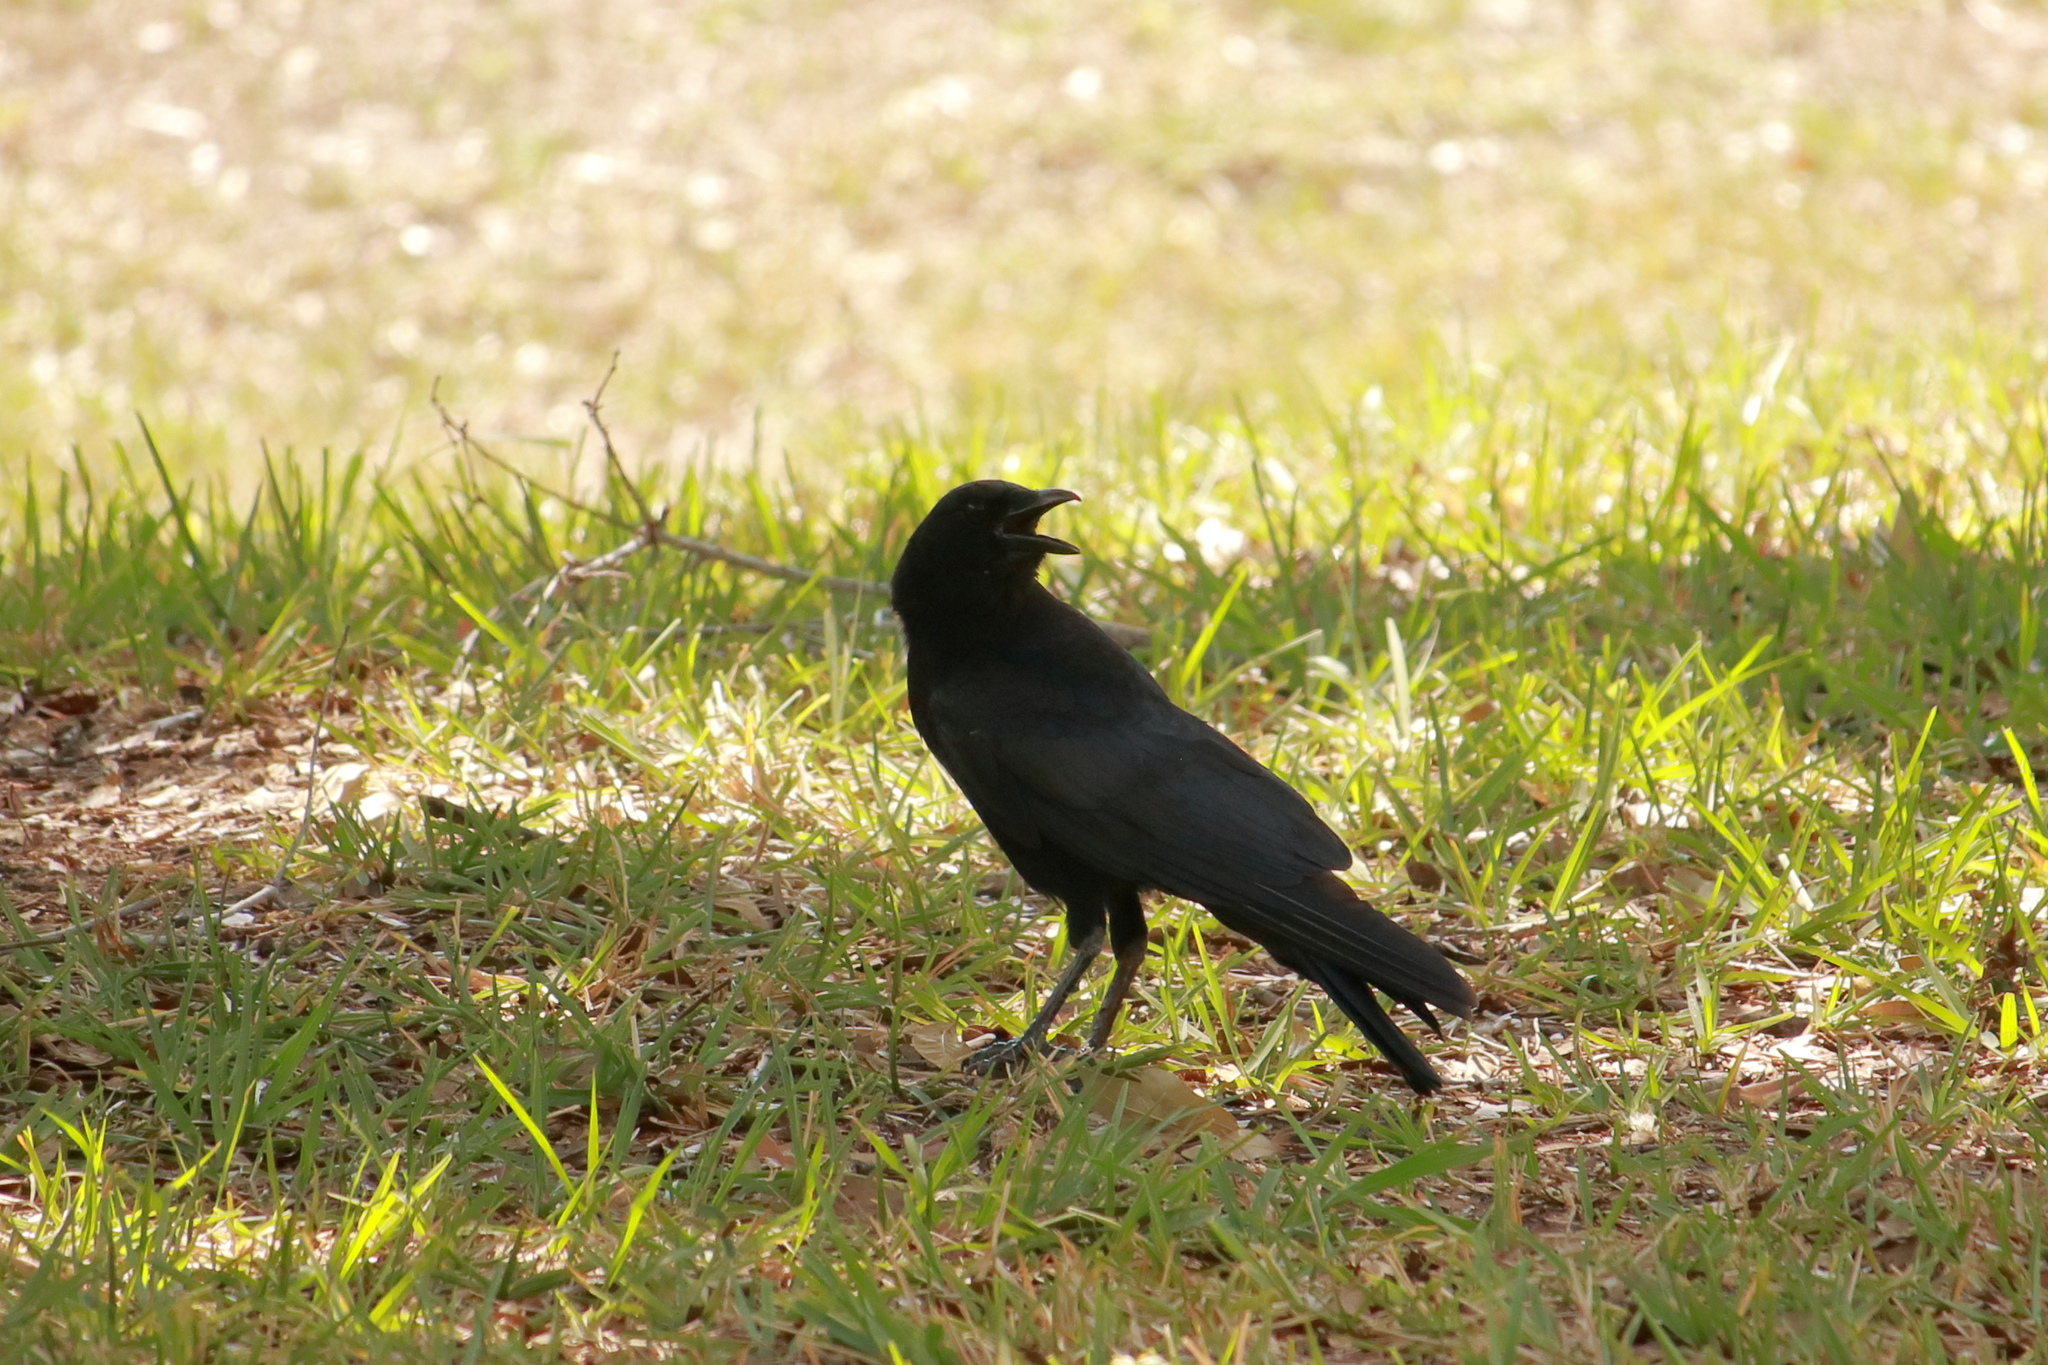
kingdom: Animalia
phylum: Chordata
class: Aves
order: Passeriformes
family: Corvidae
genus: Corvus
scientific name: Corvus
